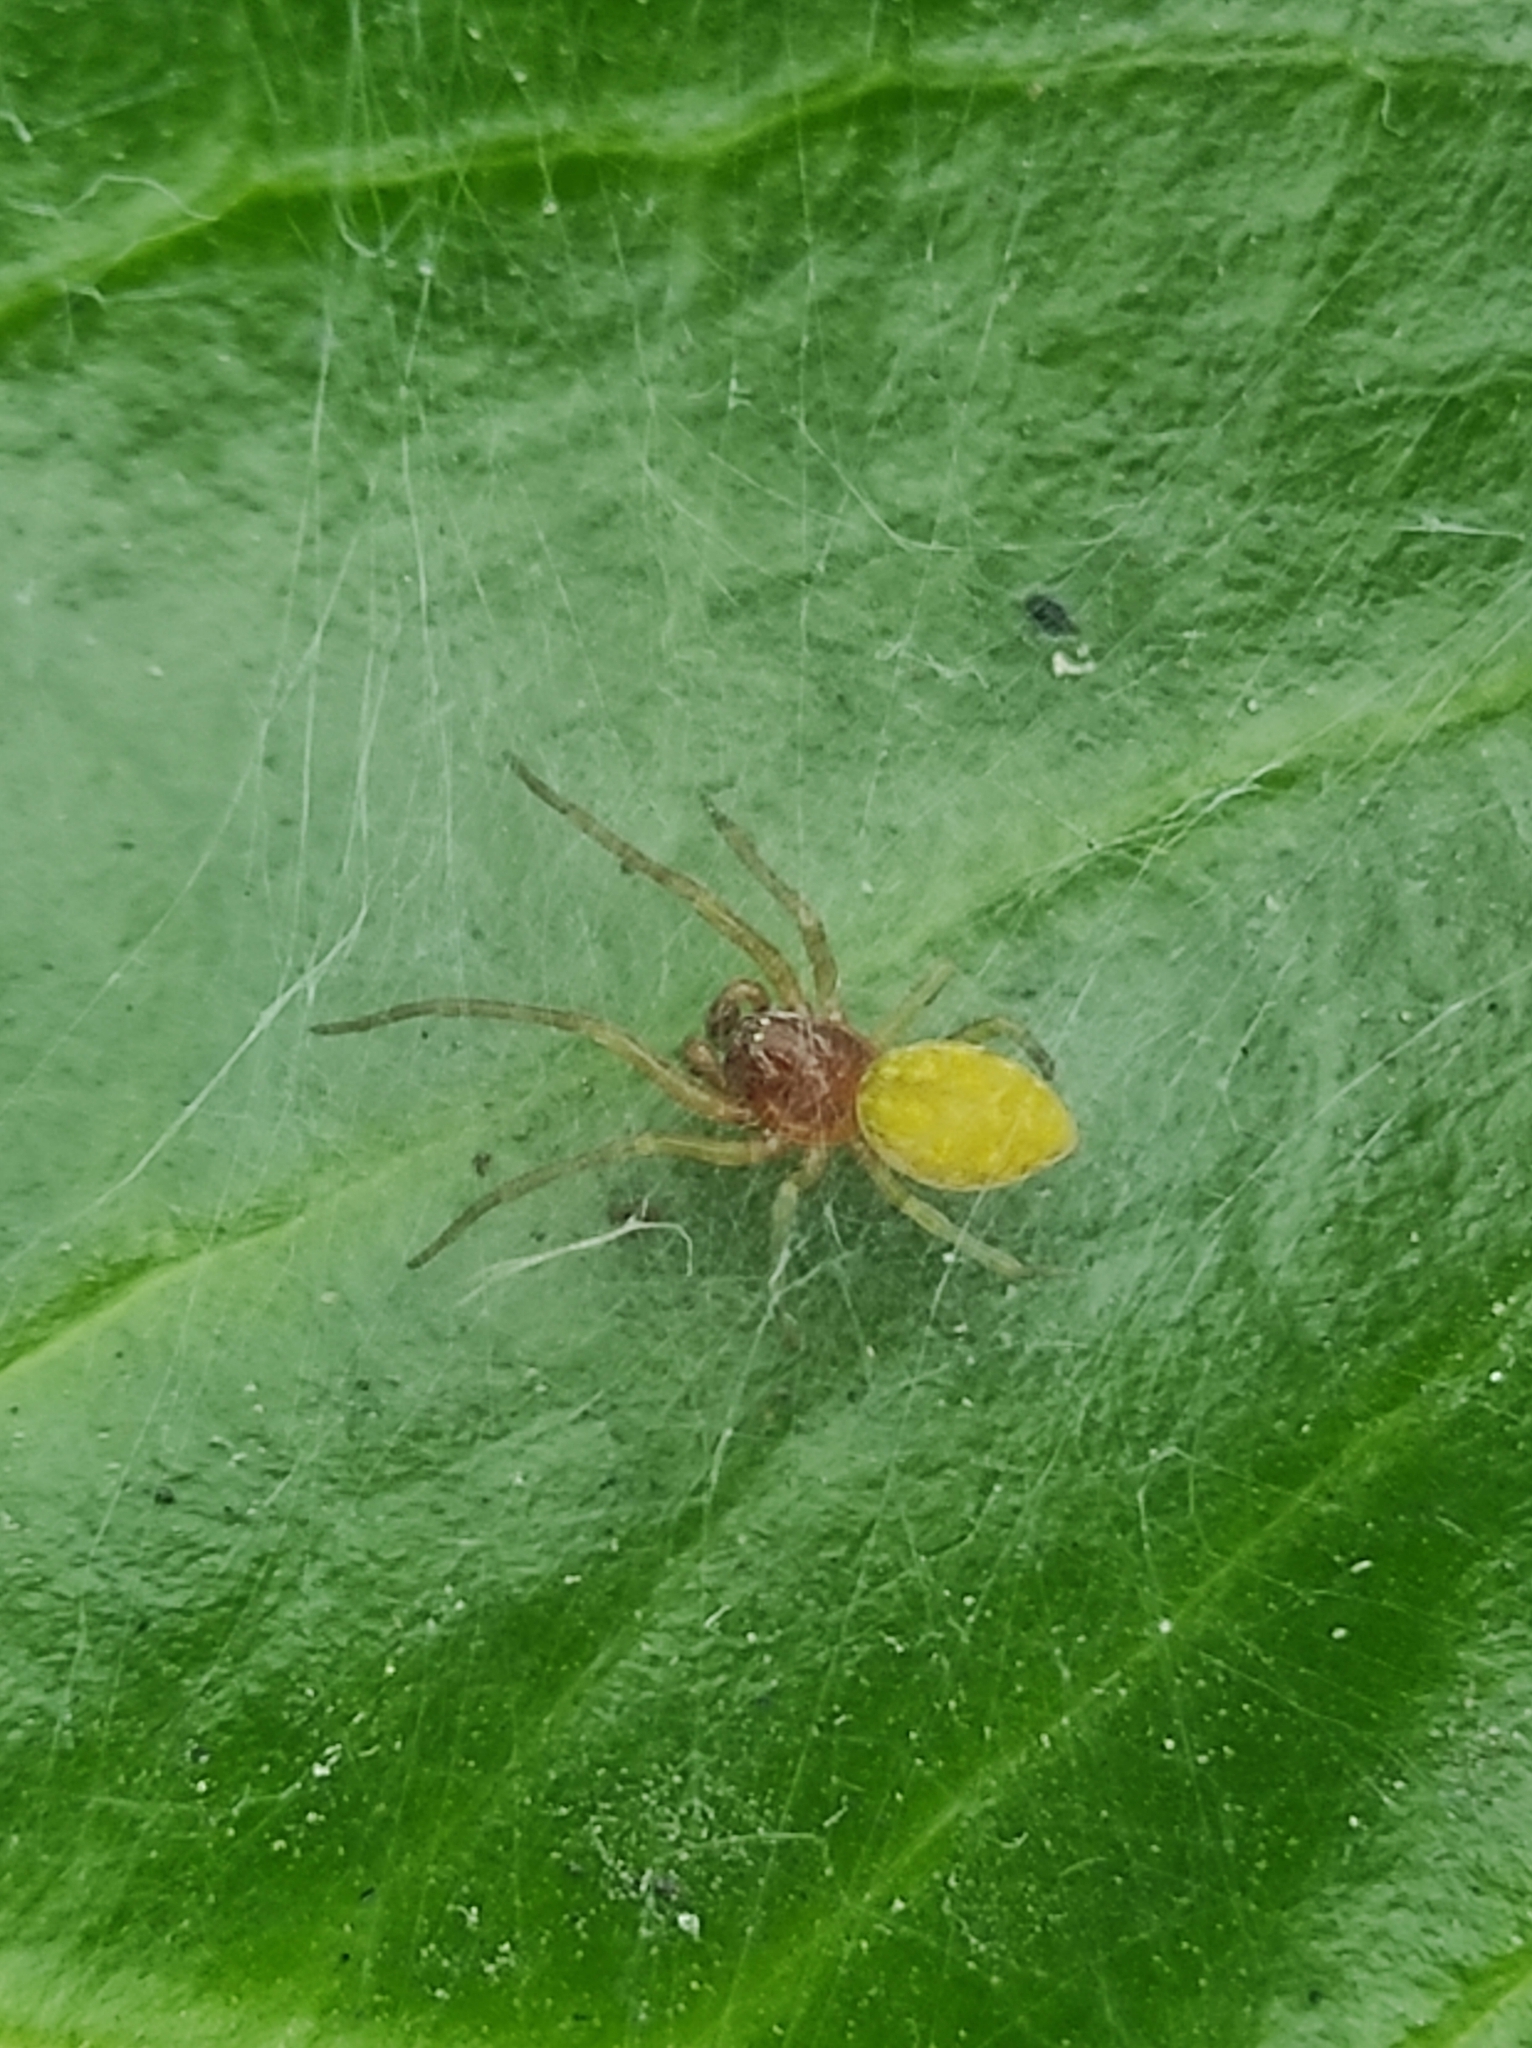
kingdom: Animalia
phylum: Arthropoda
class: Arachnida
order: Araneae
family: Dictynidae
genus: Nigma
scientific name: Nigma walckenaeri
